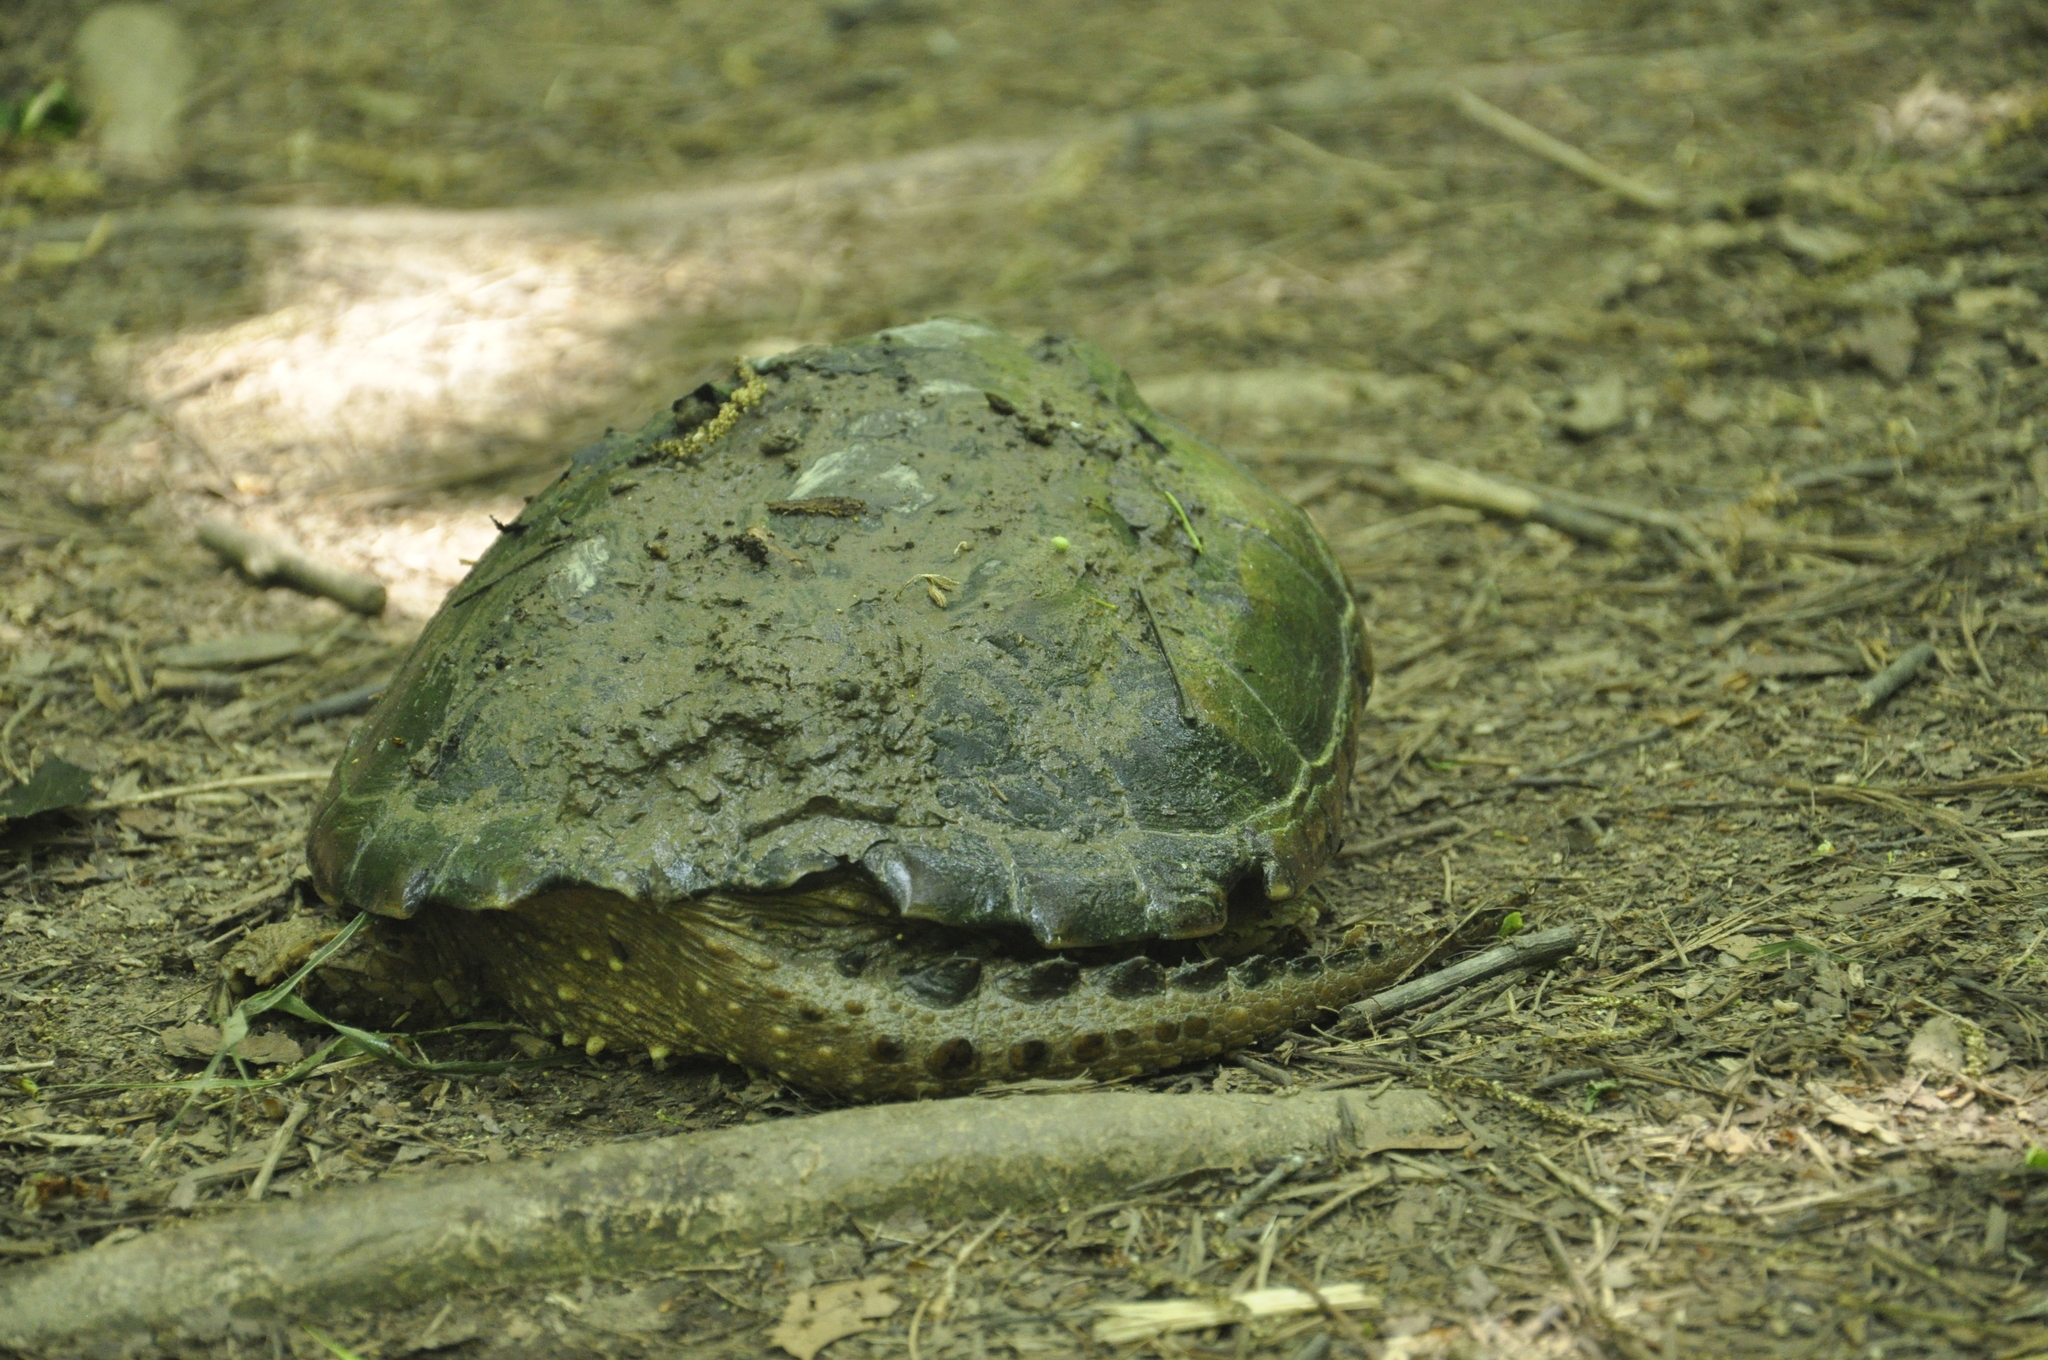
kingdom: Animalia
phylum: Chordata
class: Testudines
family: Chelydridae
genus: Chelydra
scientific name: Chelydra serpentina
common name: Common snapping turtle
